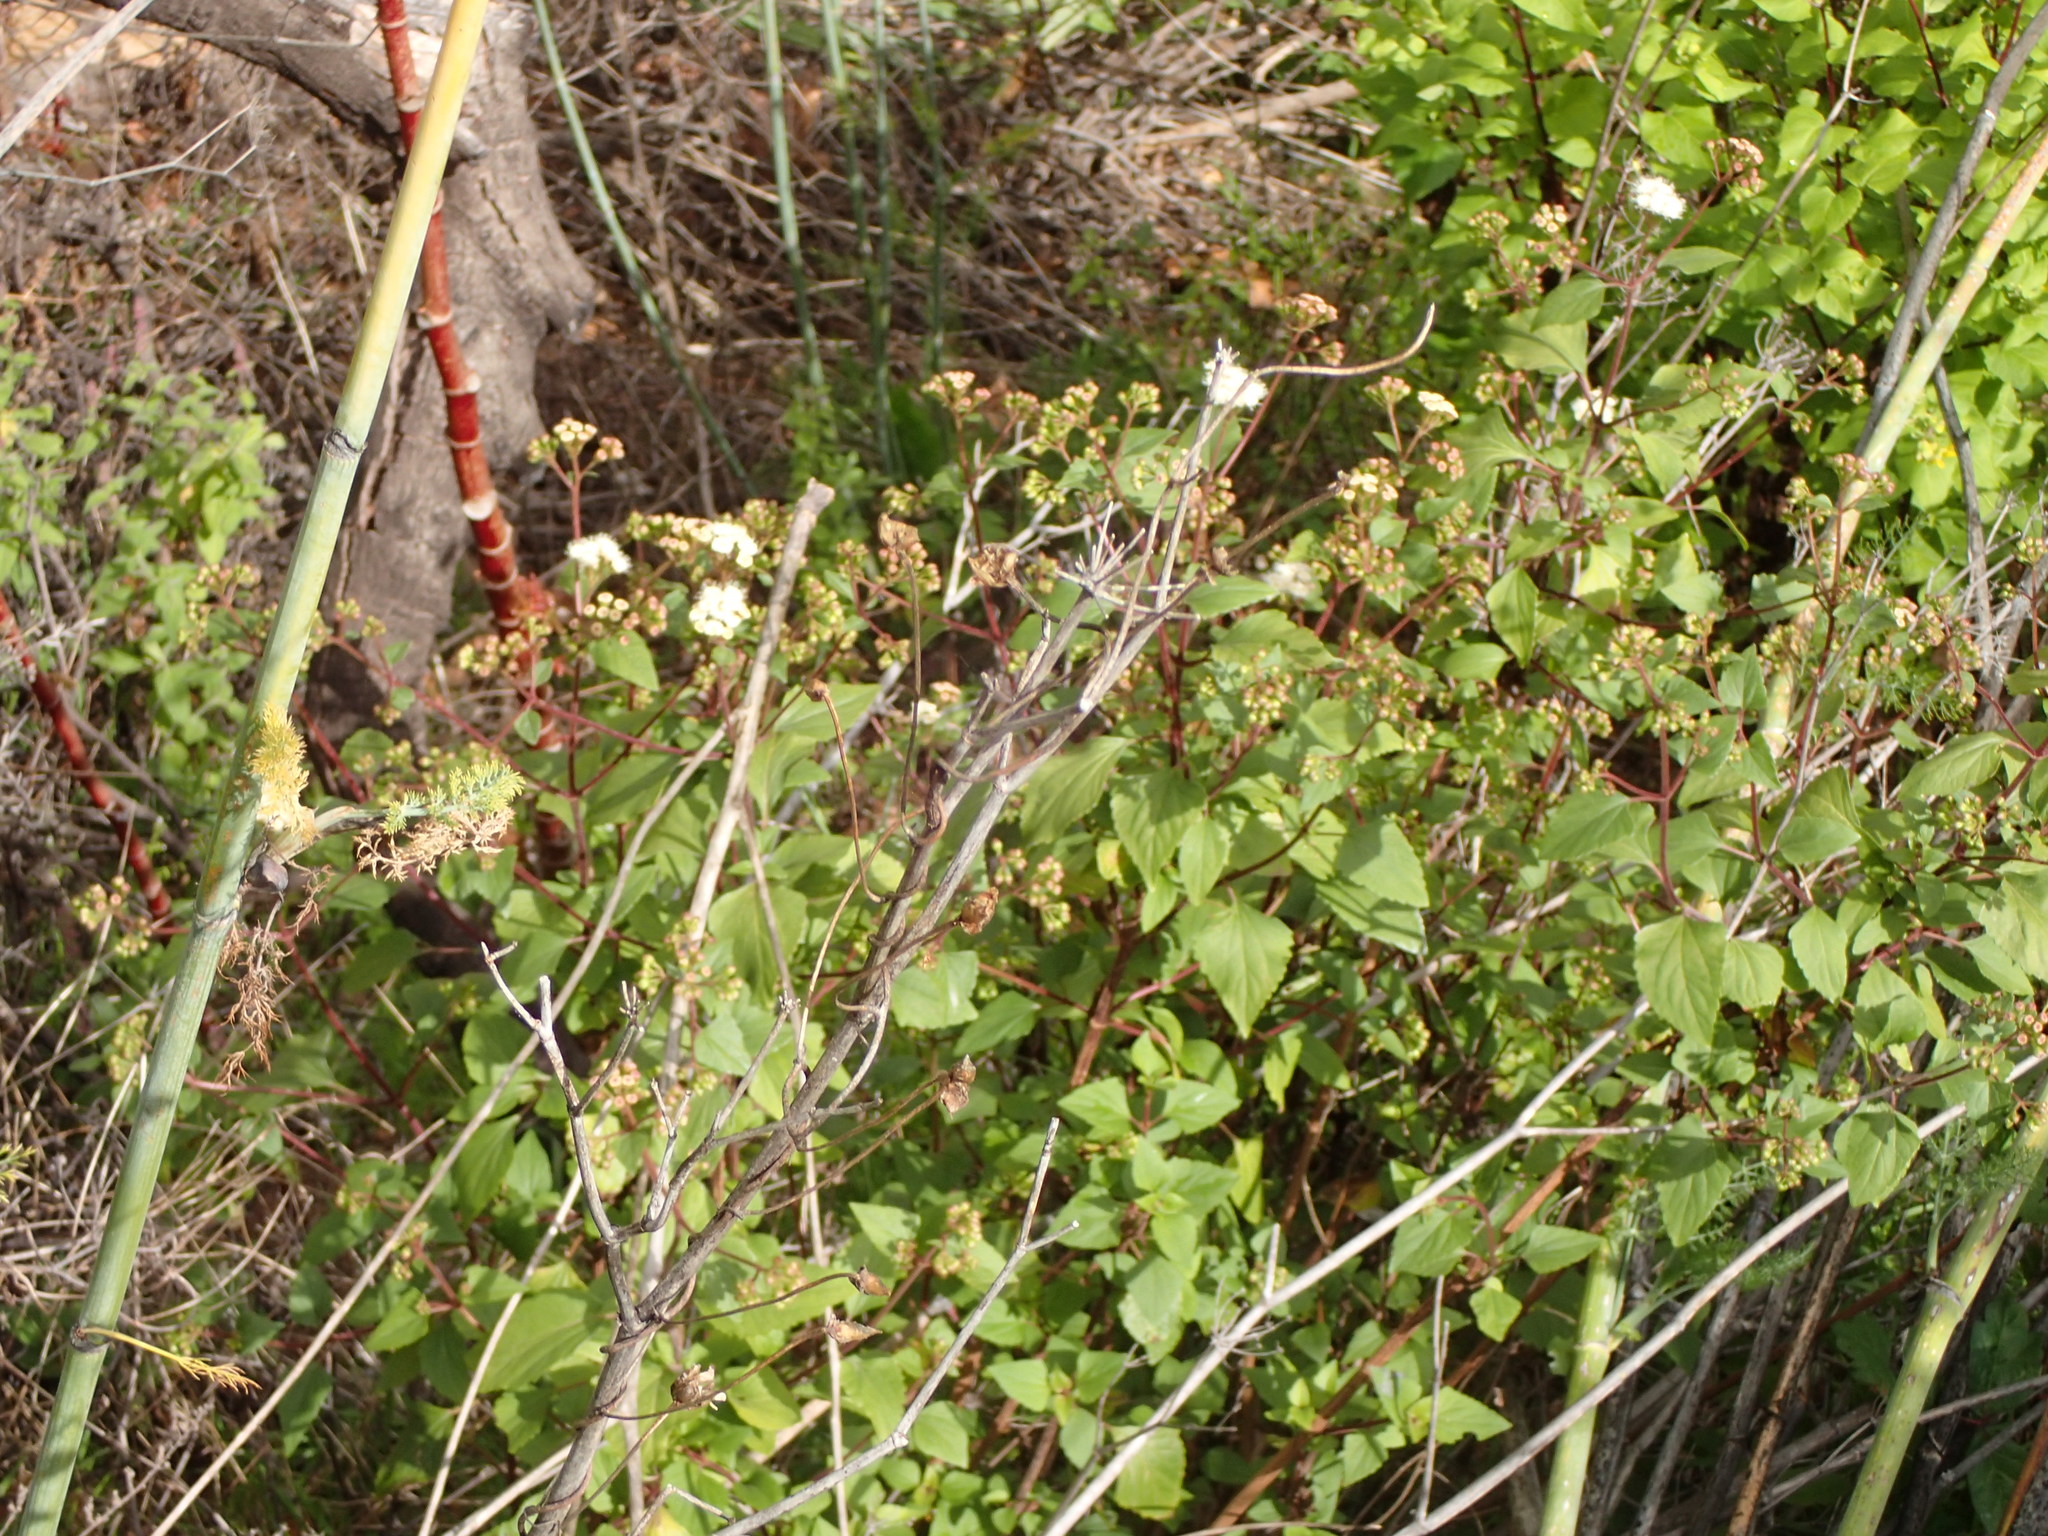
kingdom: Plantae
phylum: Tracheophyta
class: Magnoliopsida
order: Asterales
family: Asteraceae
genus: Ageratina
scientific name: Ageratina adenophora
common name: Sticky snakeroot
